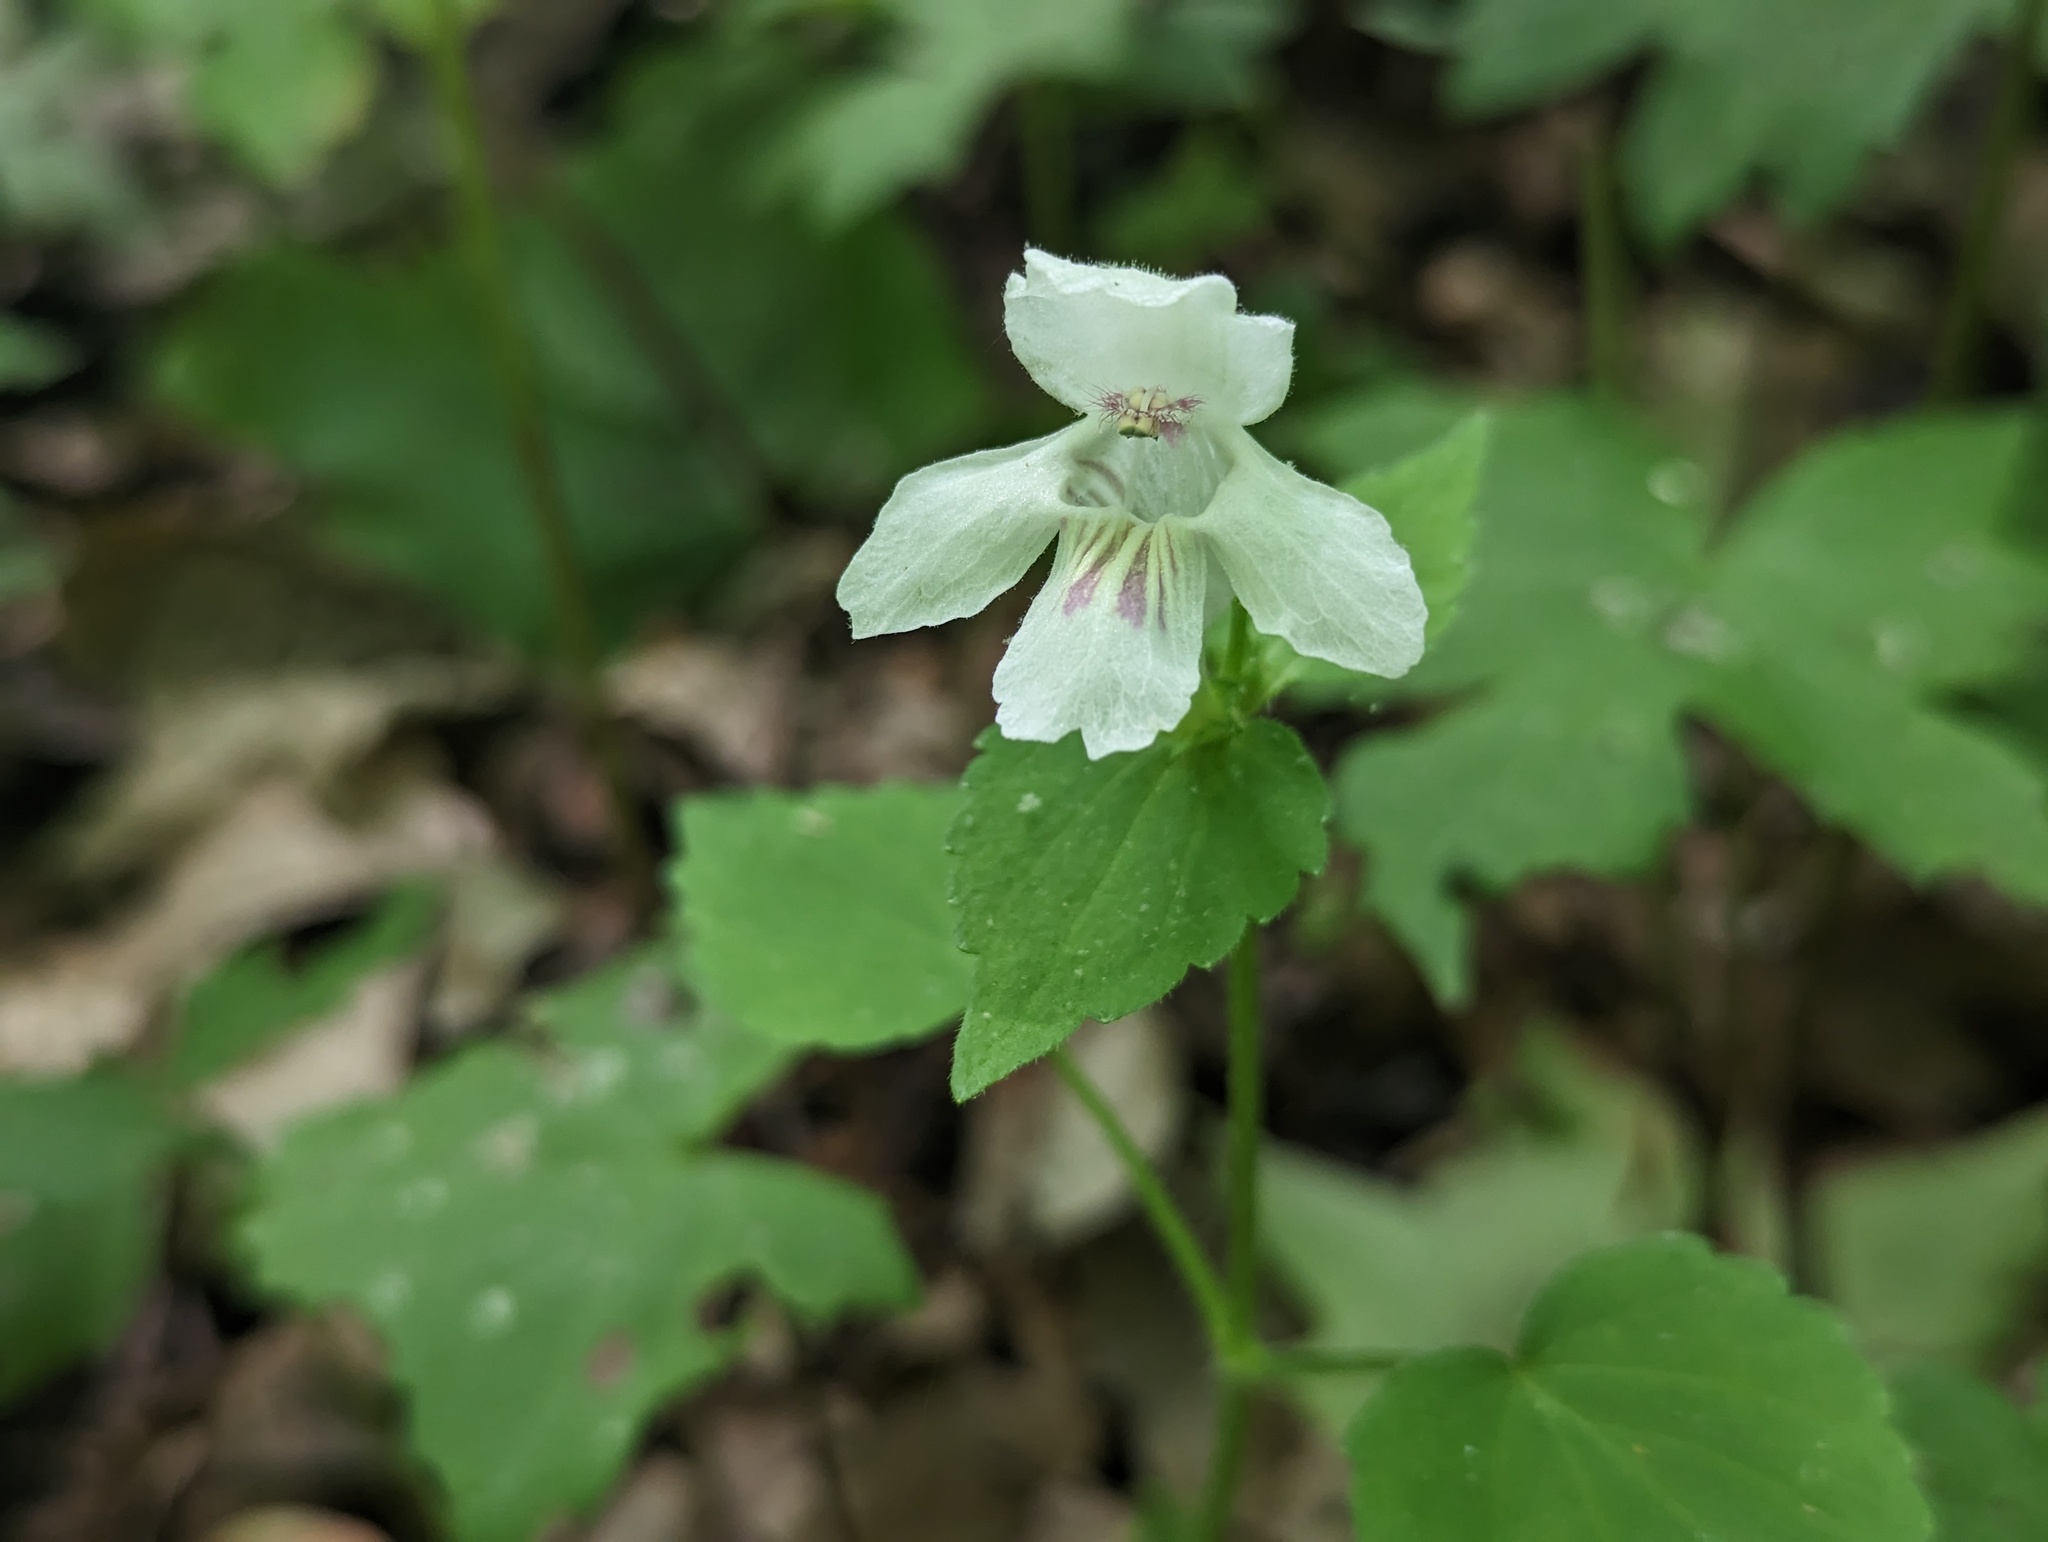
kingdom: Plantae
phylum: Tracheophyta
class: Magnoliopsida
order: Lamiales
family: Lamiaceae
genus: Synandra
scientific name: Synandra hispidula
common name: Synandra
